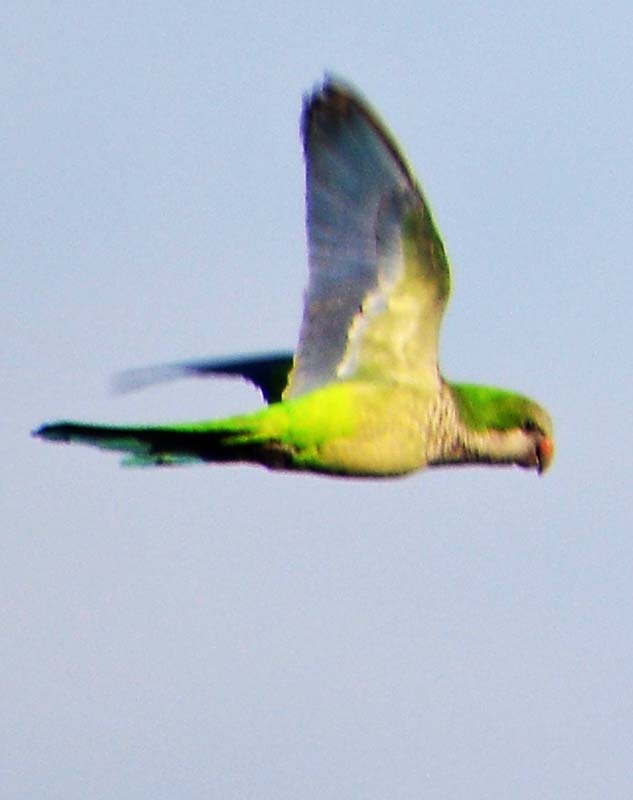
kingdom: Animalia
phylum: Chordata
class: Aves
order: Psittaciformes
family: Psittacidae
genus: Myiopsitta
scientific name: Myiopsitta monachus
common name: Monk parakeet
